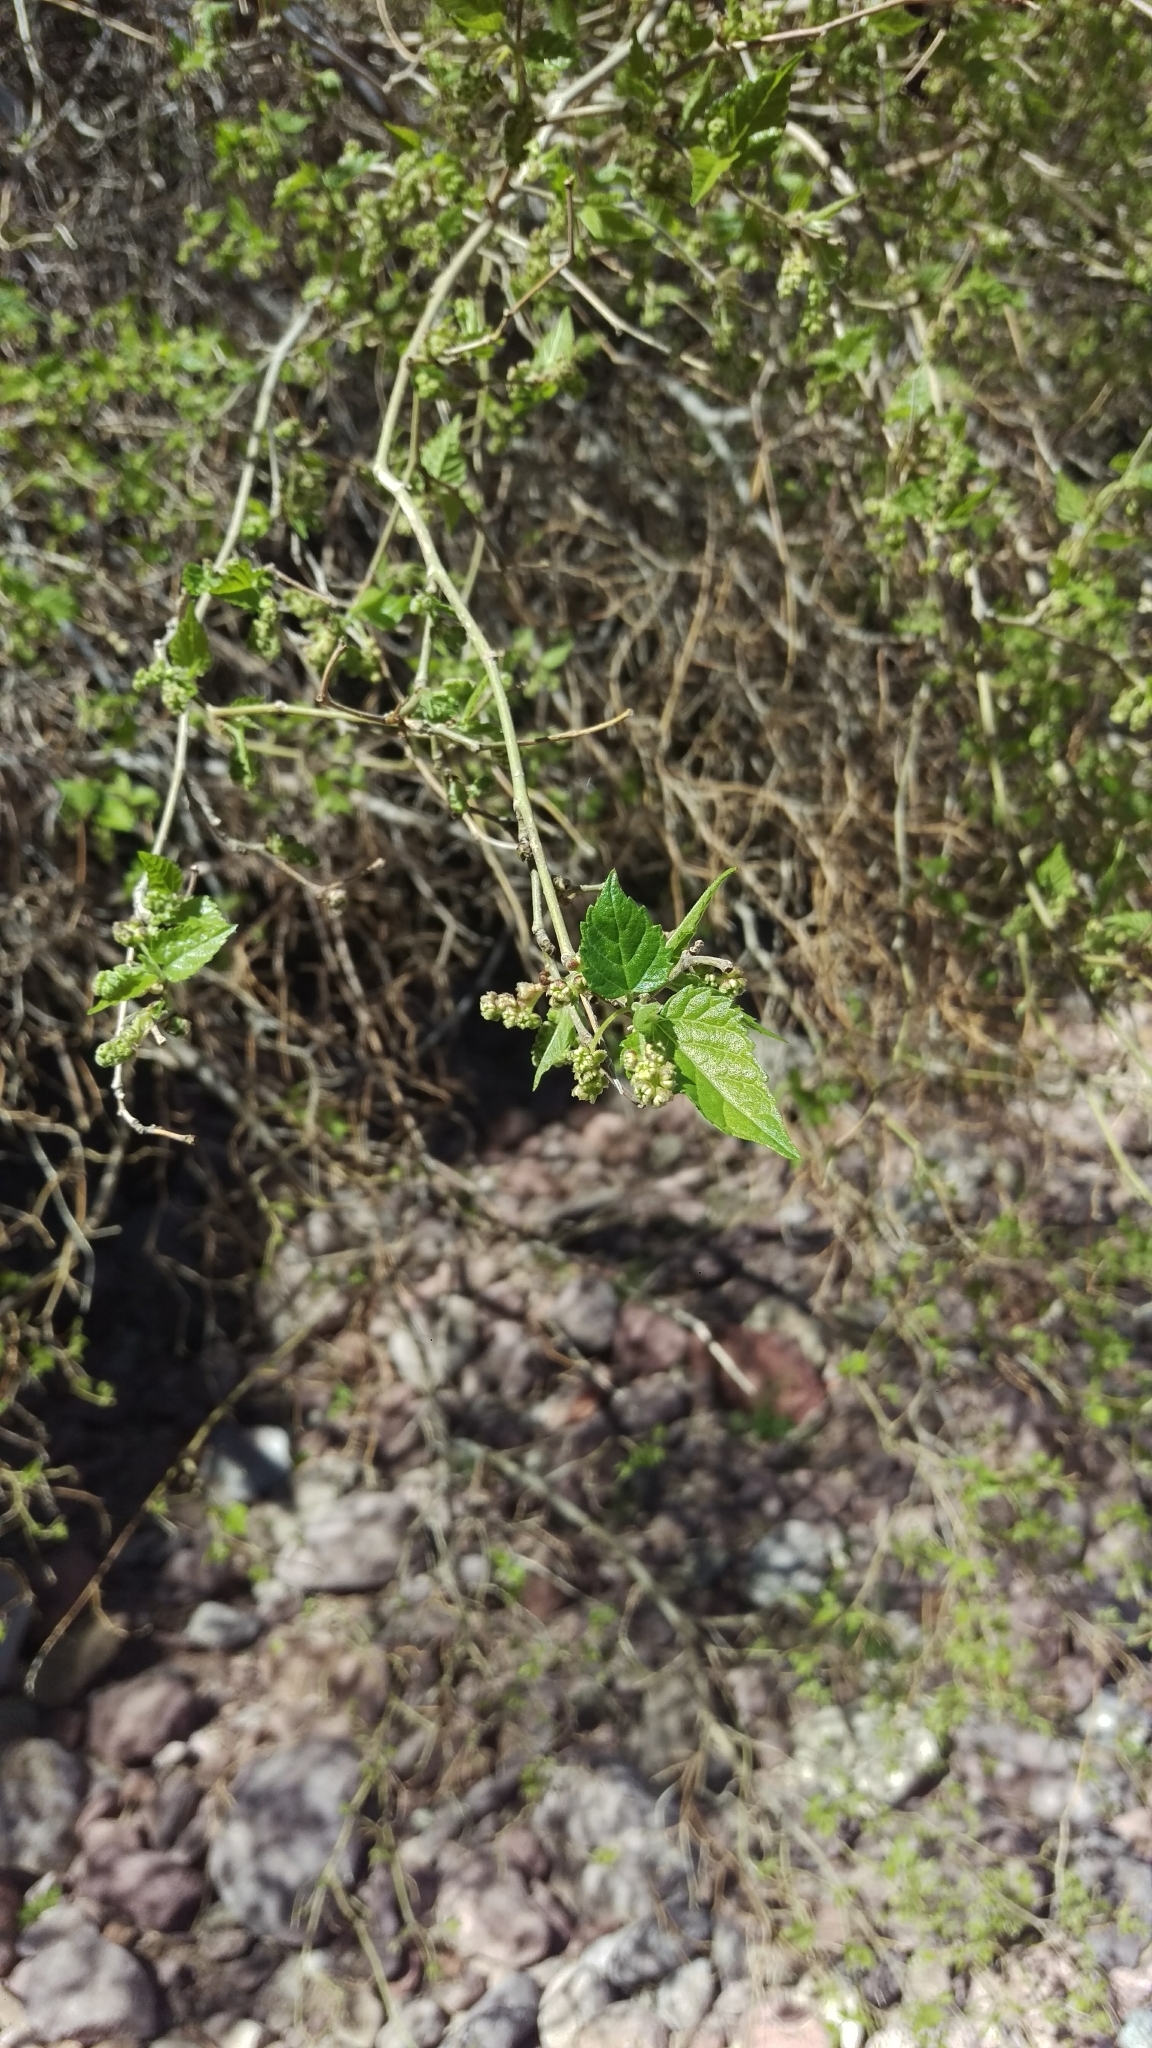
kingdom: Plantae
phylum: Tracheophyta
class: Magnoliopsida
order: Rosales
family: Moraceae
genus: Morus
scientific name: Morus microphylla
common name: Mexican mulberry
